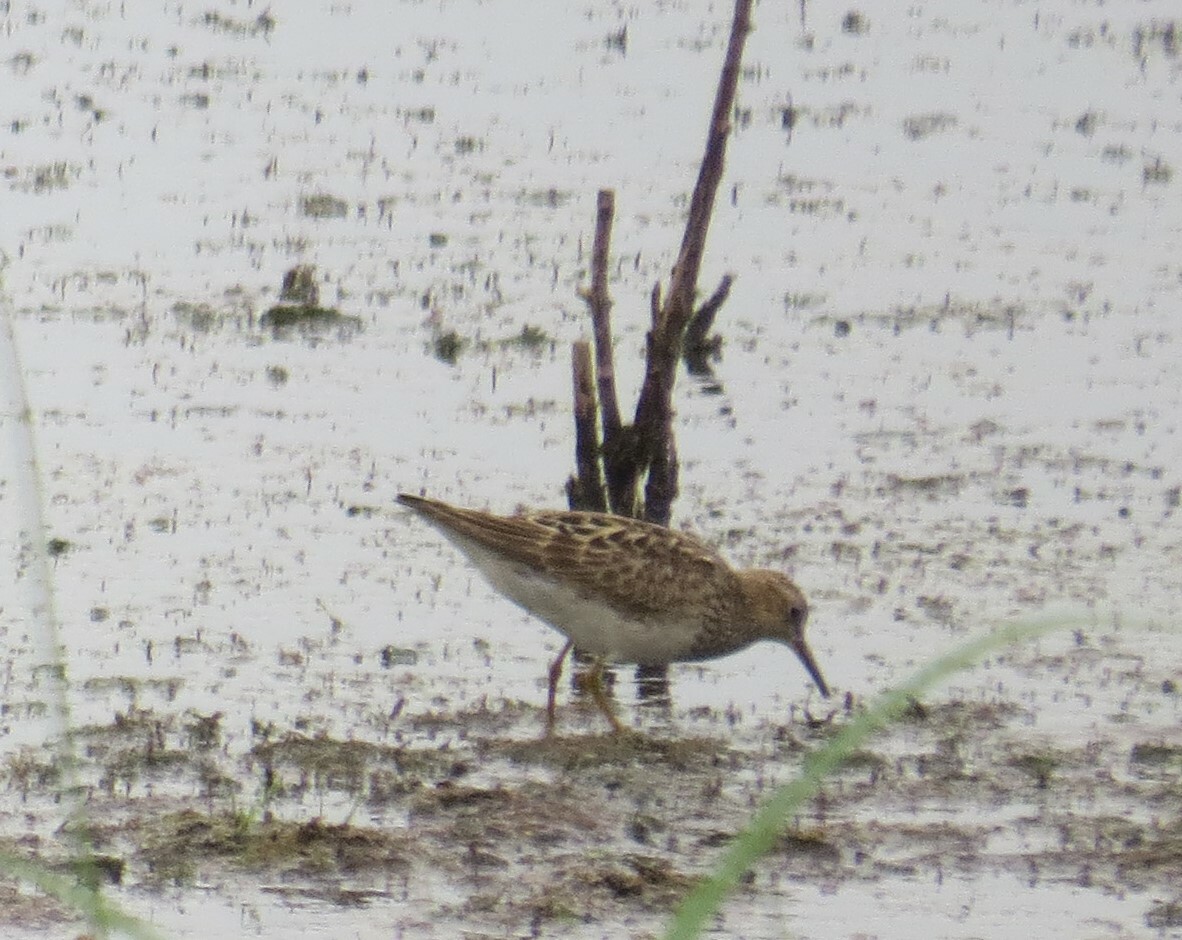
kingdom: Animalia
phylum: Chordata
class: Aves
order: Charadriiformes
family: Scolopacidae
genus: Calidris
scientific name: Calidris melanotos
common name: Pectoral sandpiper
